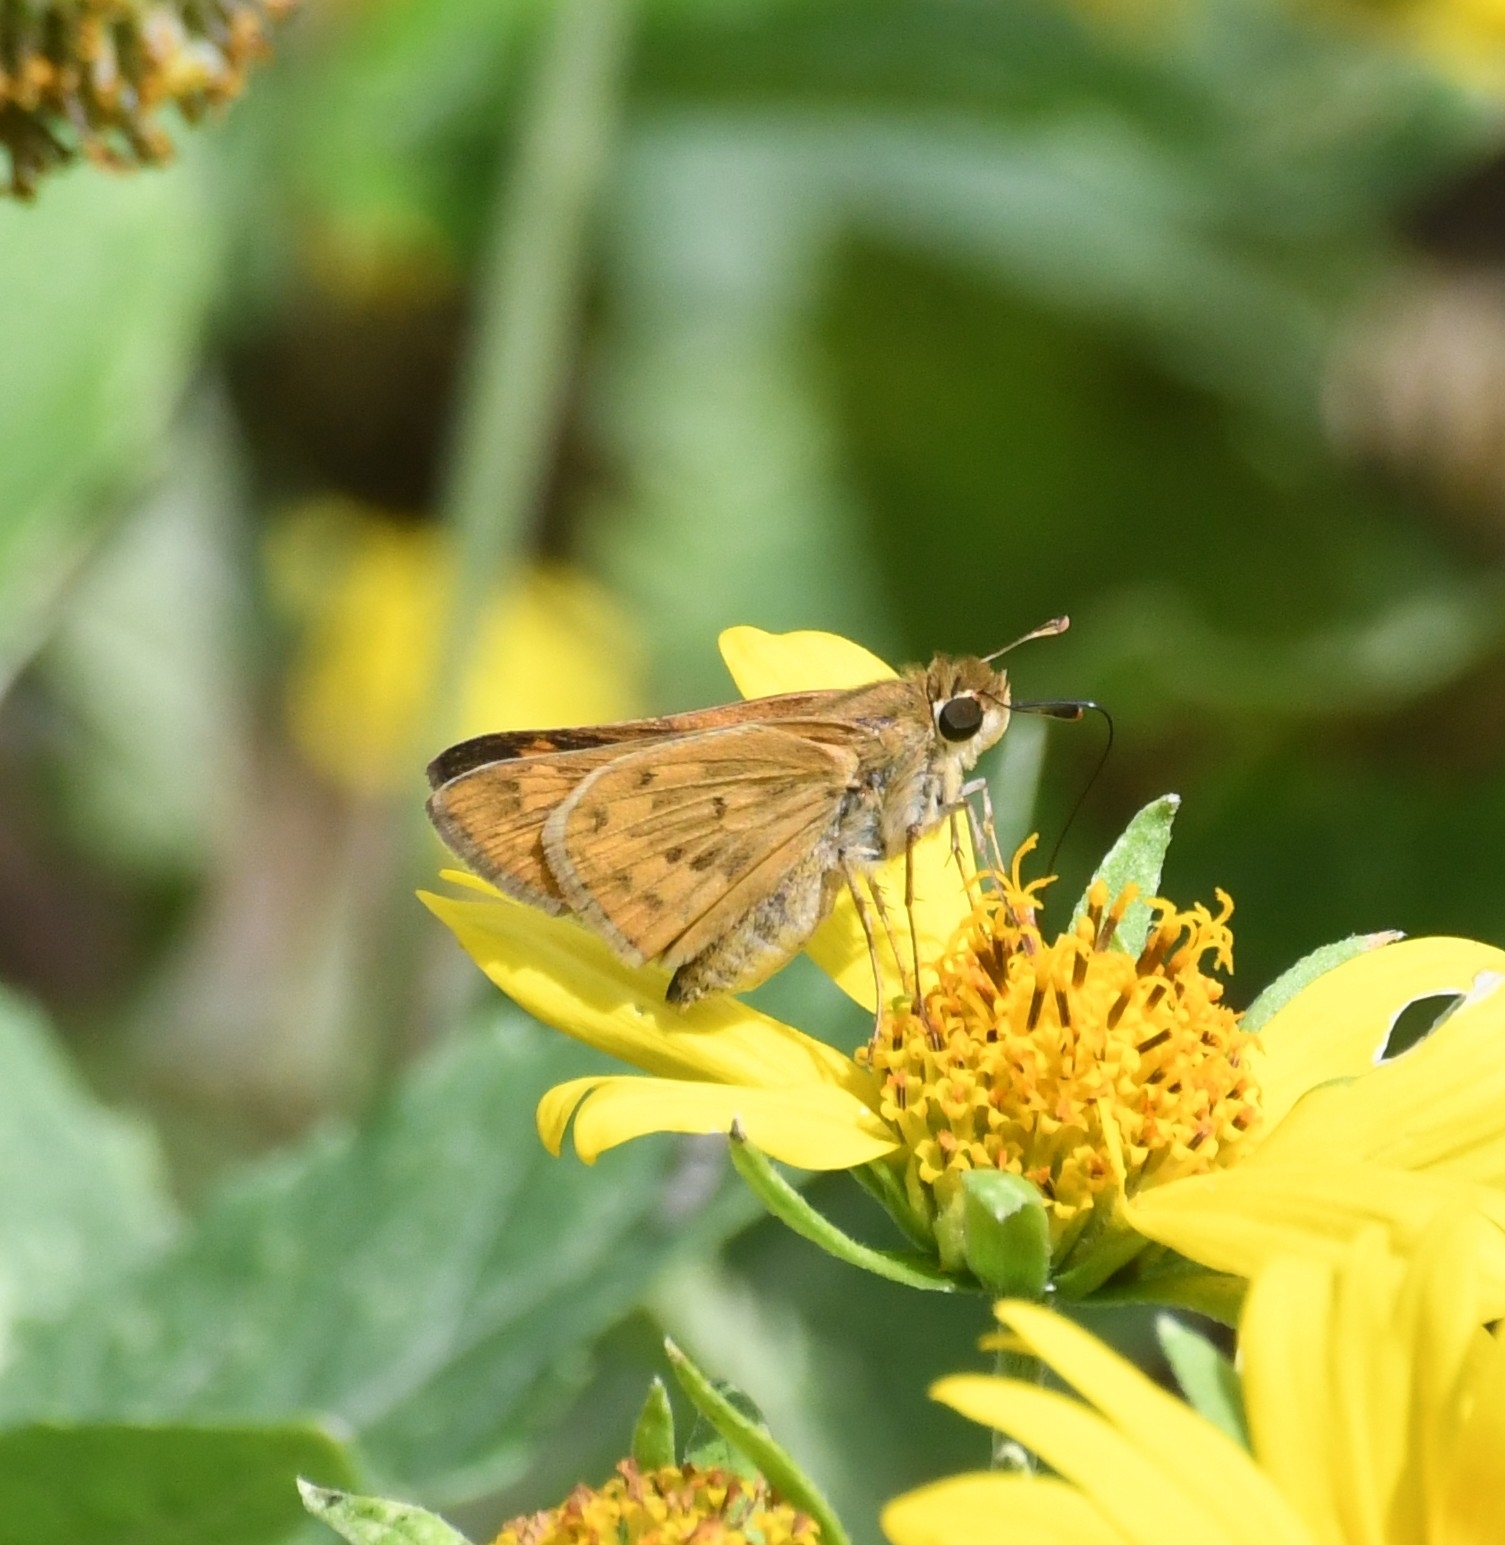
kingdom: Animalia
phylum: Arthropoda
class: Insecta
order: Lepidoptera
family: Hesperiidae
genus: Hylephila
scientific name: Hylephila phyleus
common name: Fiery skipper
